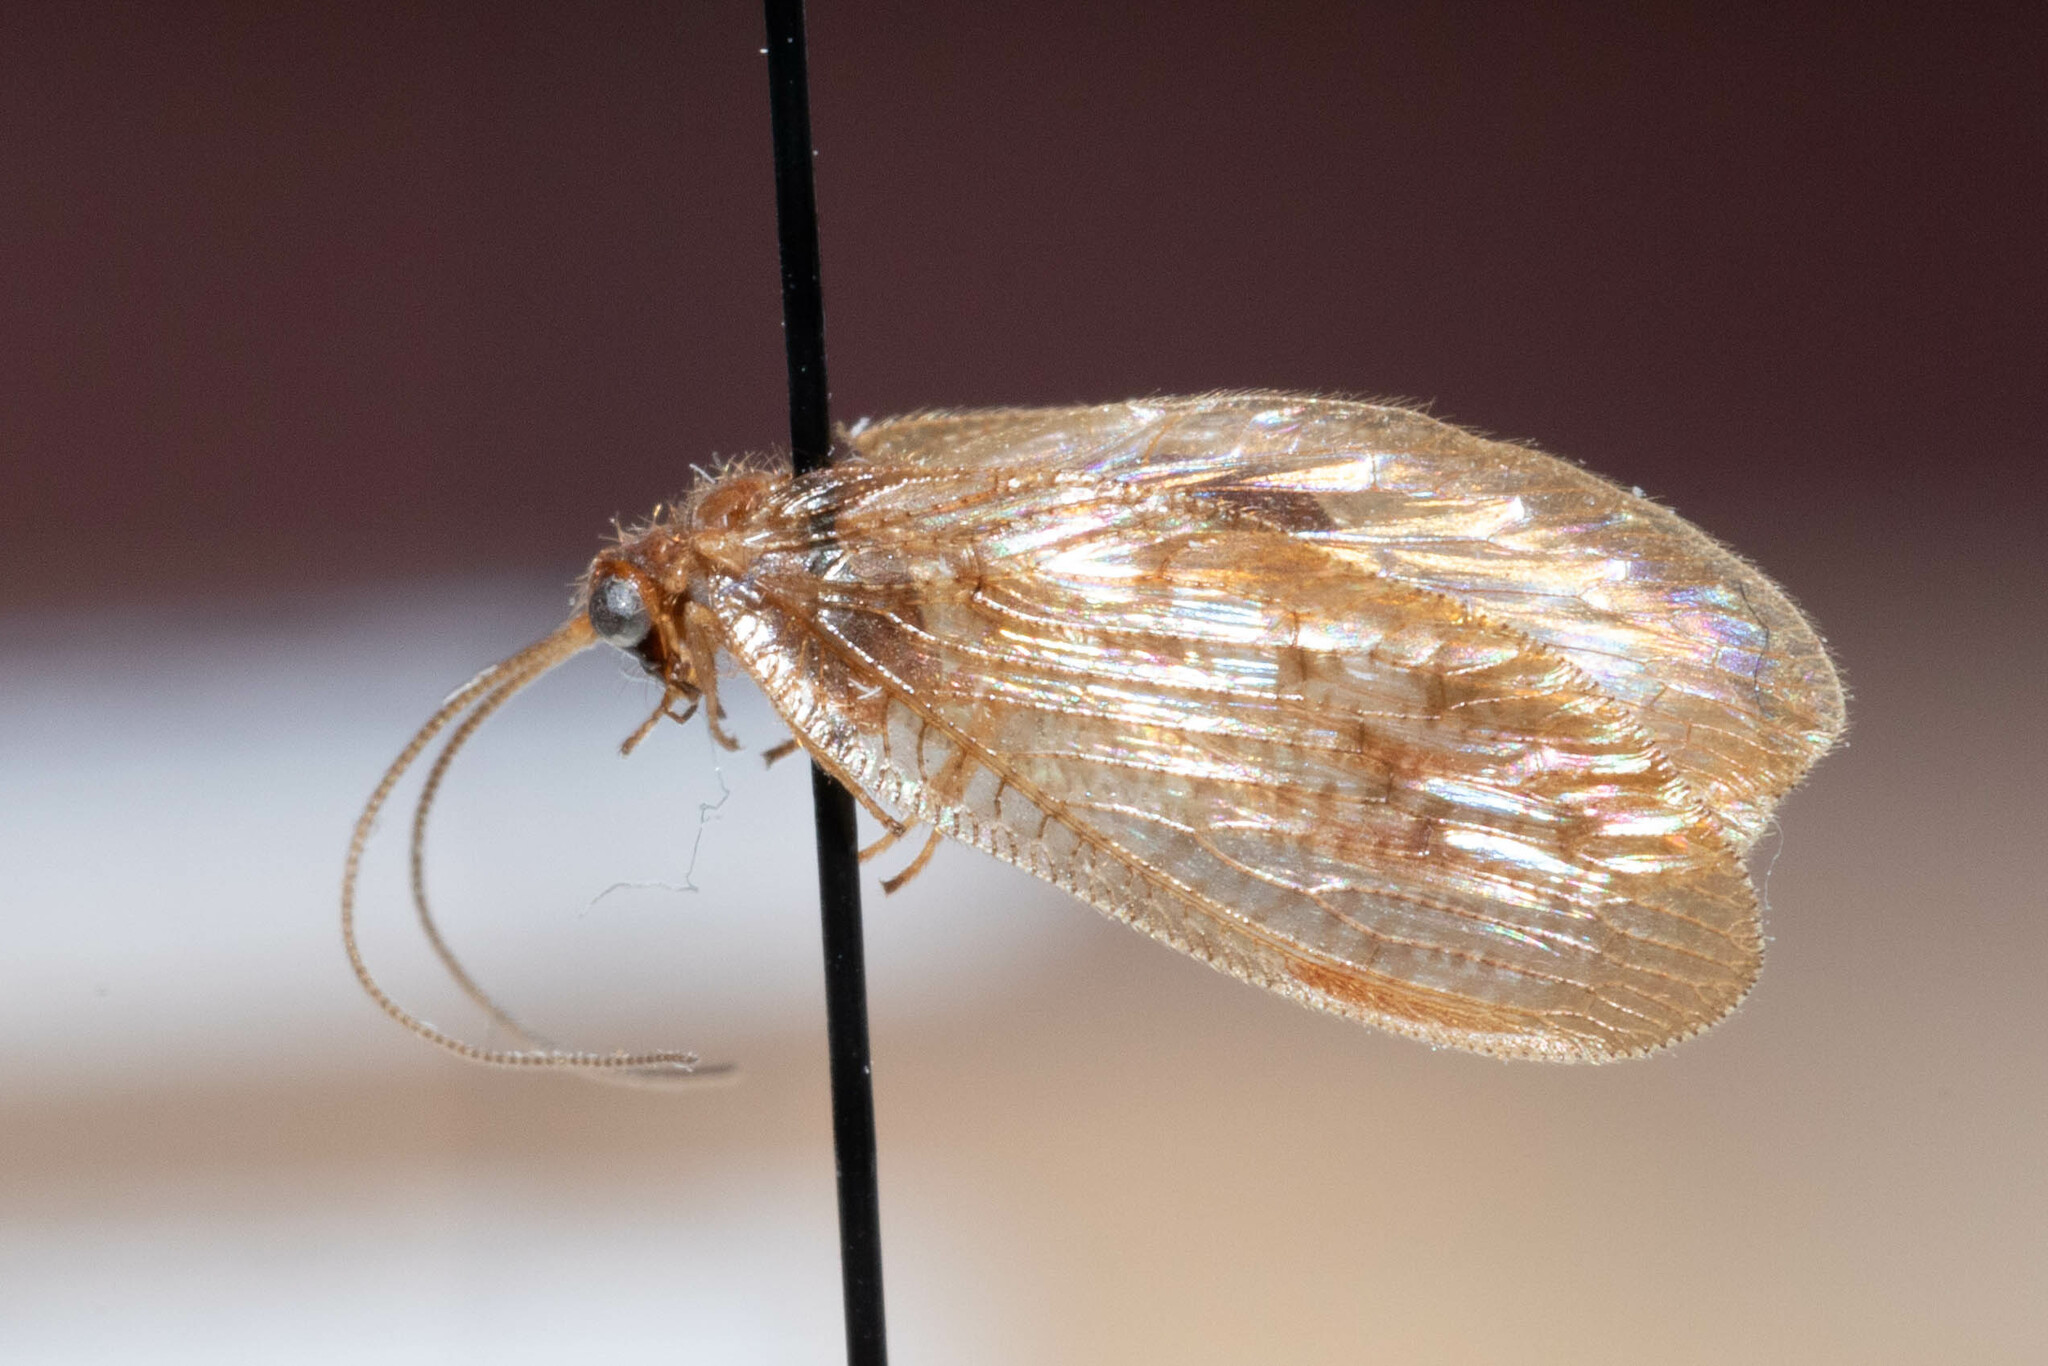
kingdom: Animalia
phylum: Arthropoda
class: Insecta
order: Neuroptera
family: Hemerobiidae
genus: Hemerobius
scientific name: Hemerobius stigma
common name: Brown pine lacewing
